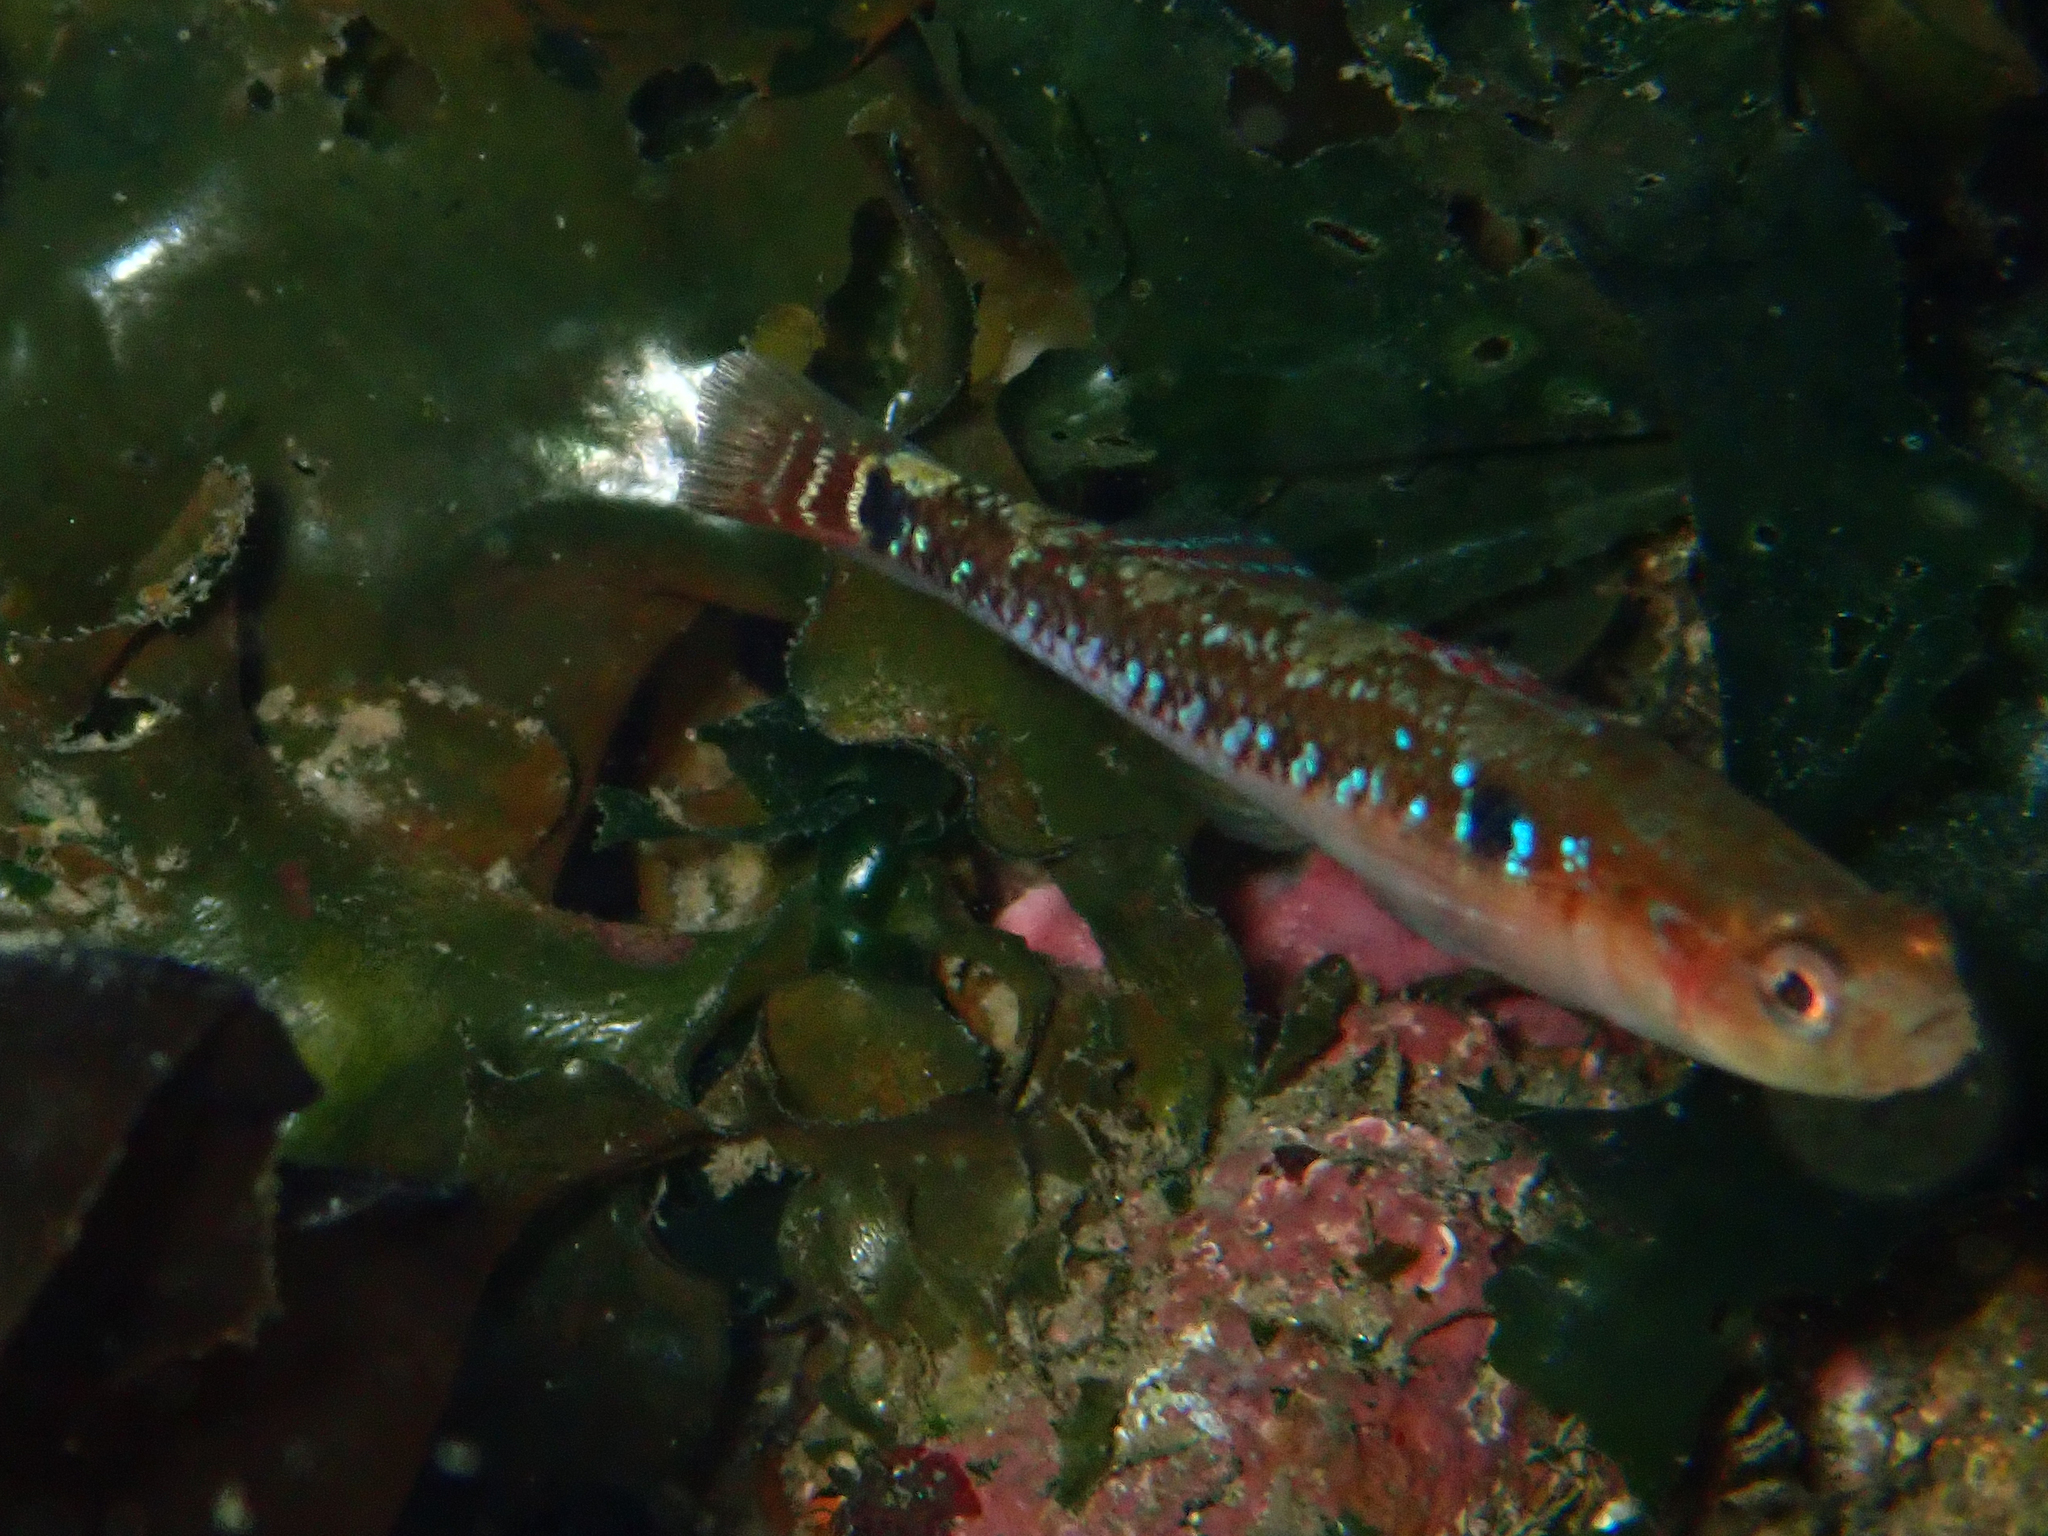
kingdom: Animalia
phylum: Chordata
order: Perciformes
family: Gobiidae
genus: Gobiusculus
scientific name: Gobiusculus flavescens
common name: Two-spotted goby
